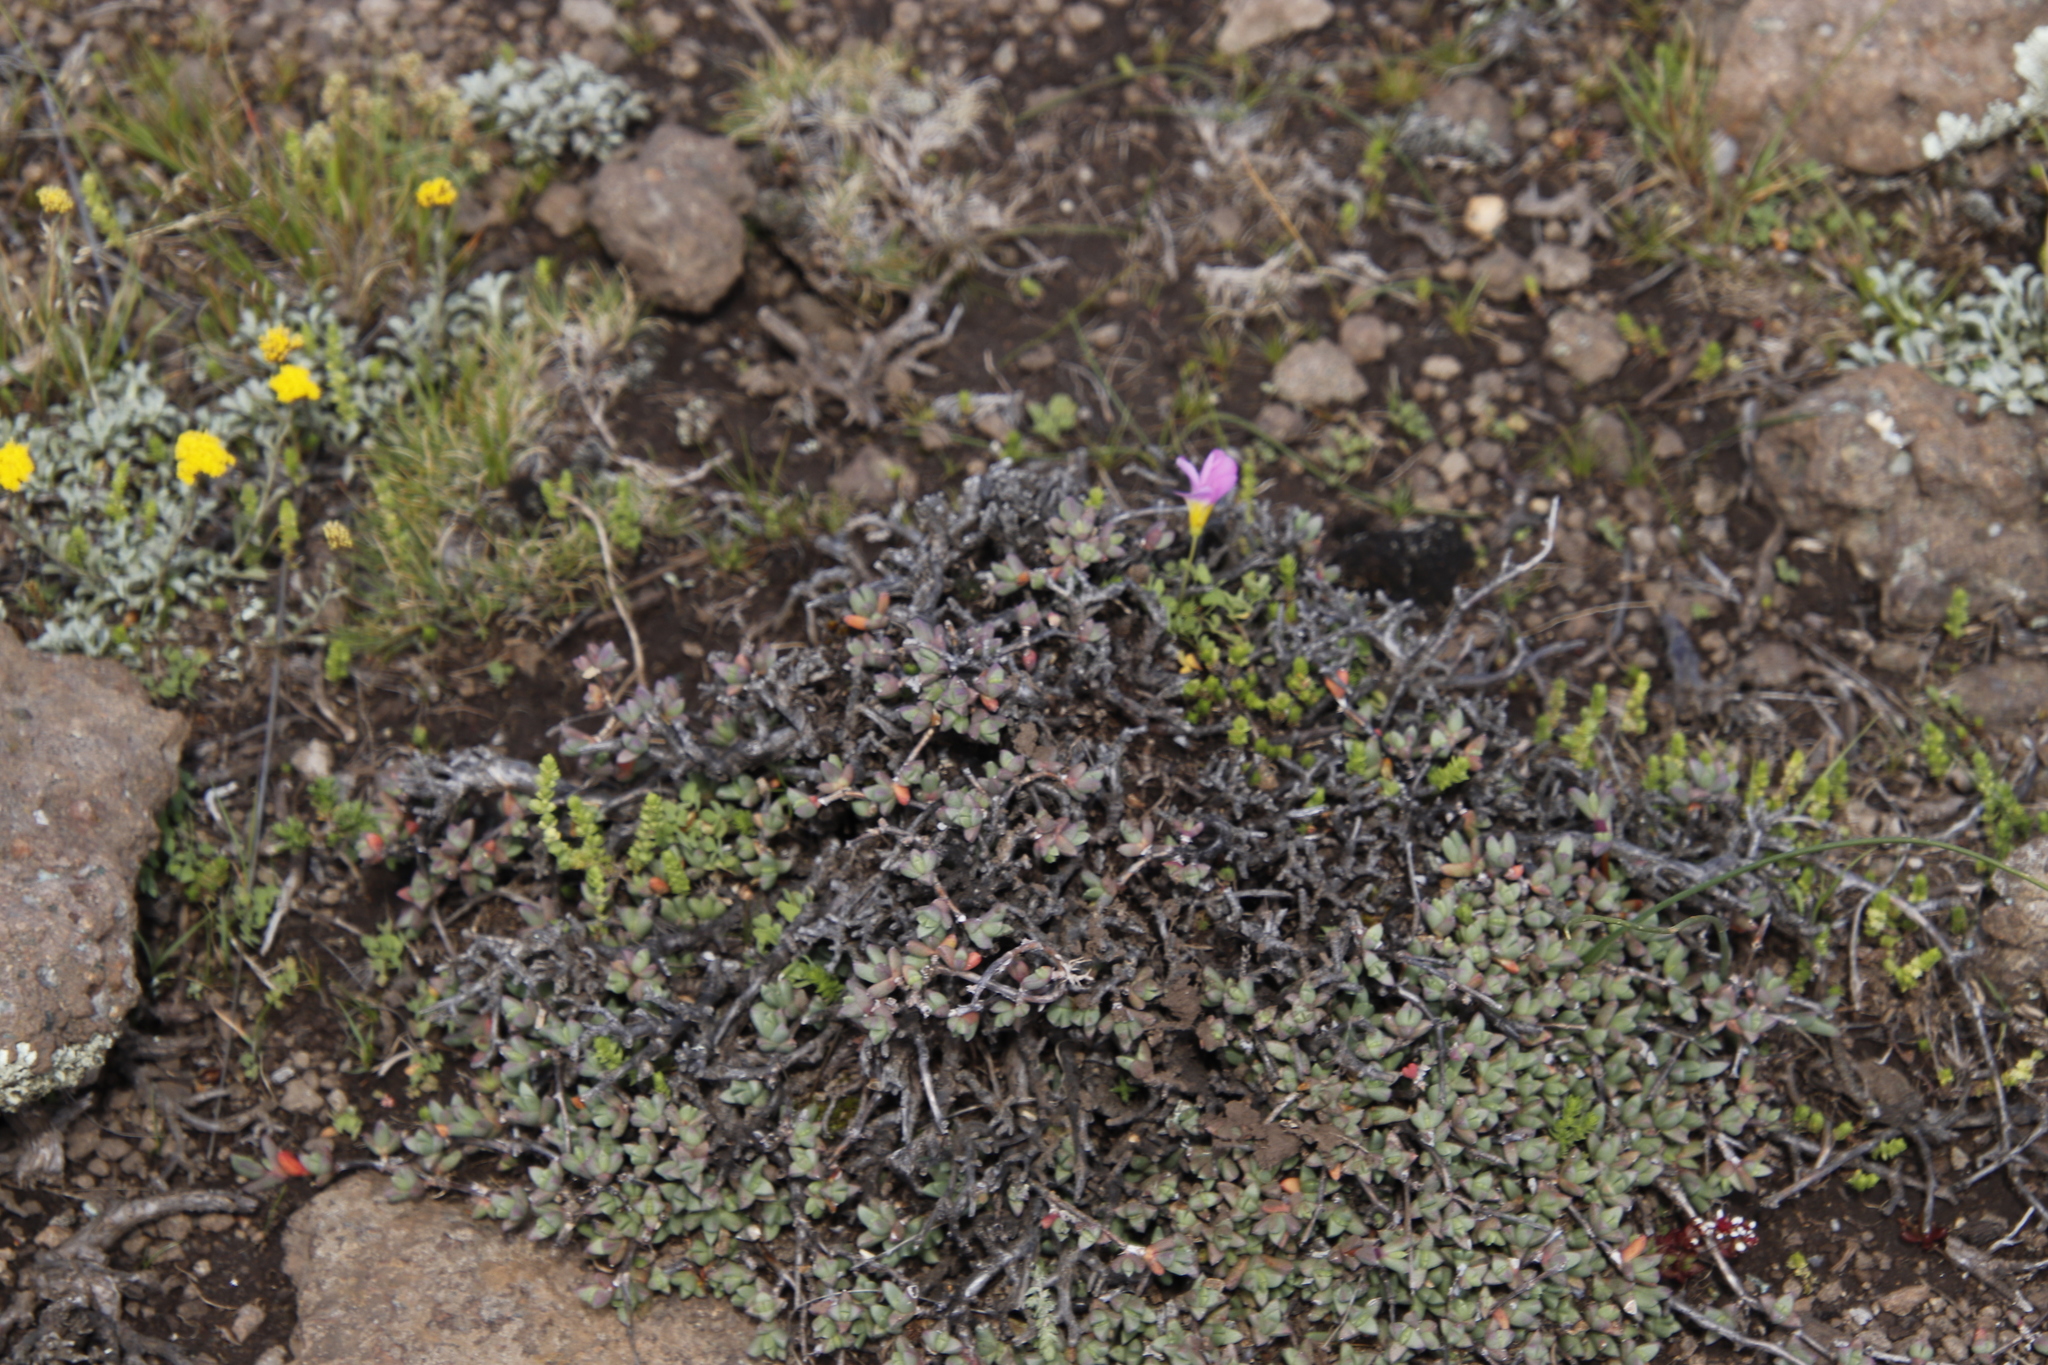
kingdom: Plantae
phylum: Tracheophyta
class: Magnoliopsida
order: Caryophyllales
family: Aizoaceae
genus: Ruschia
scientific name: Ruschia putterillii
